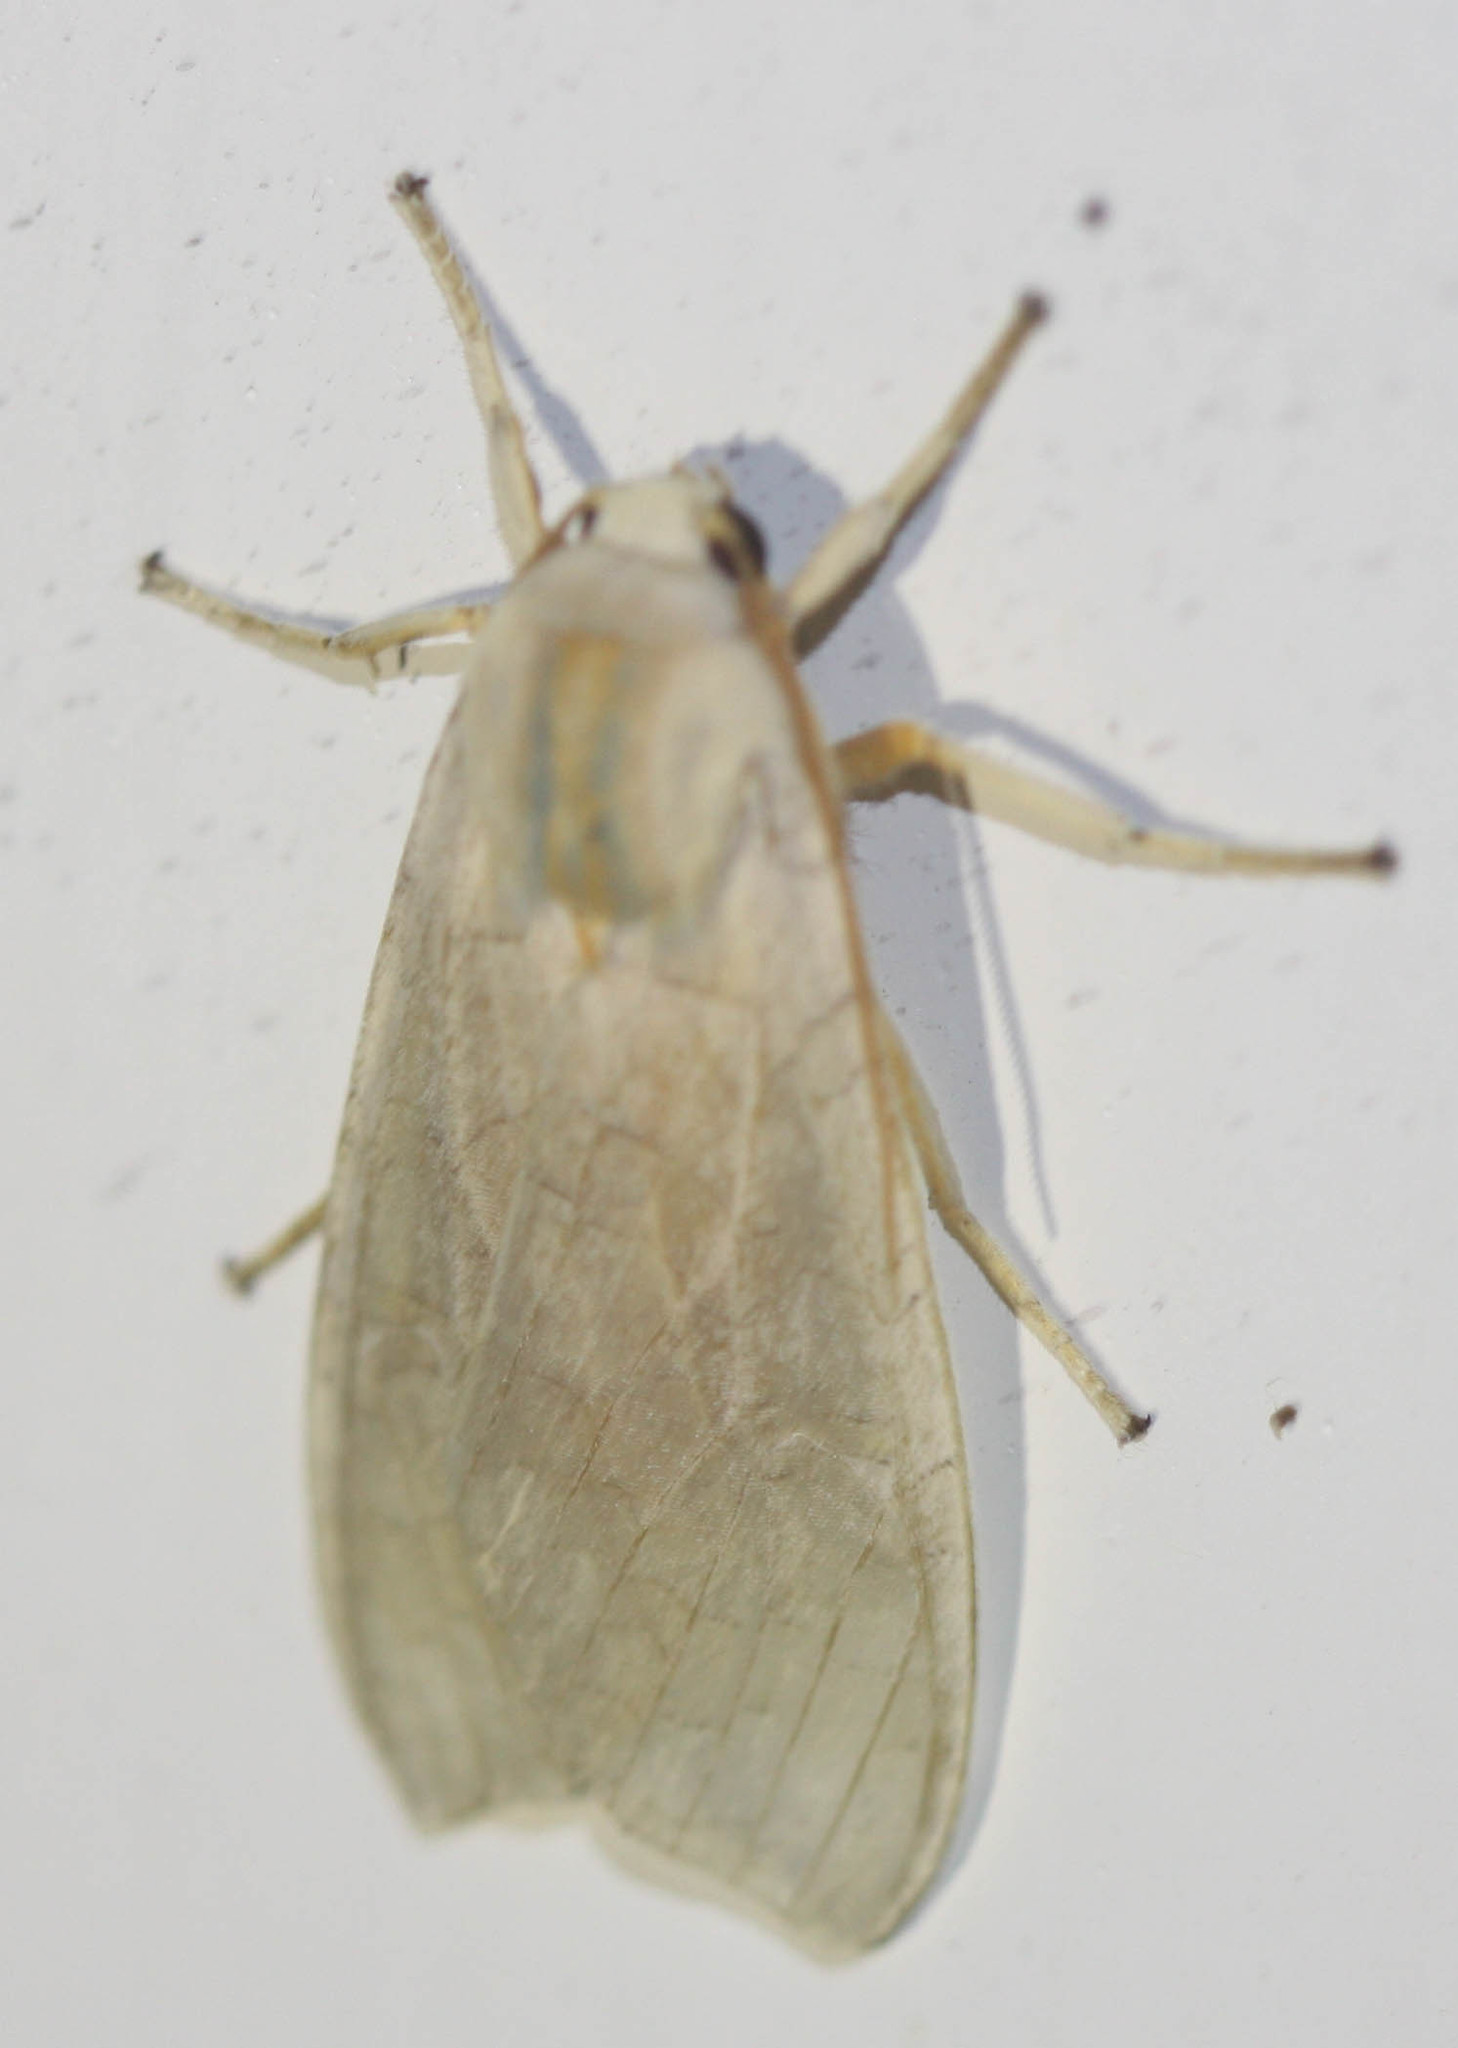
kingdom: Animalia
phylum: Arthropoda
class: Insecta
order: Lepidoptera
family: Erebidae
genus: Halysidota
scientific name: Halysidota
